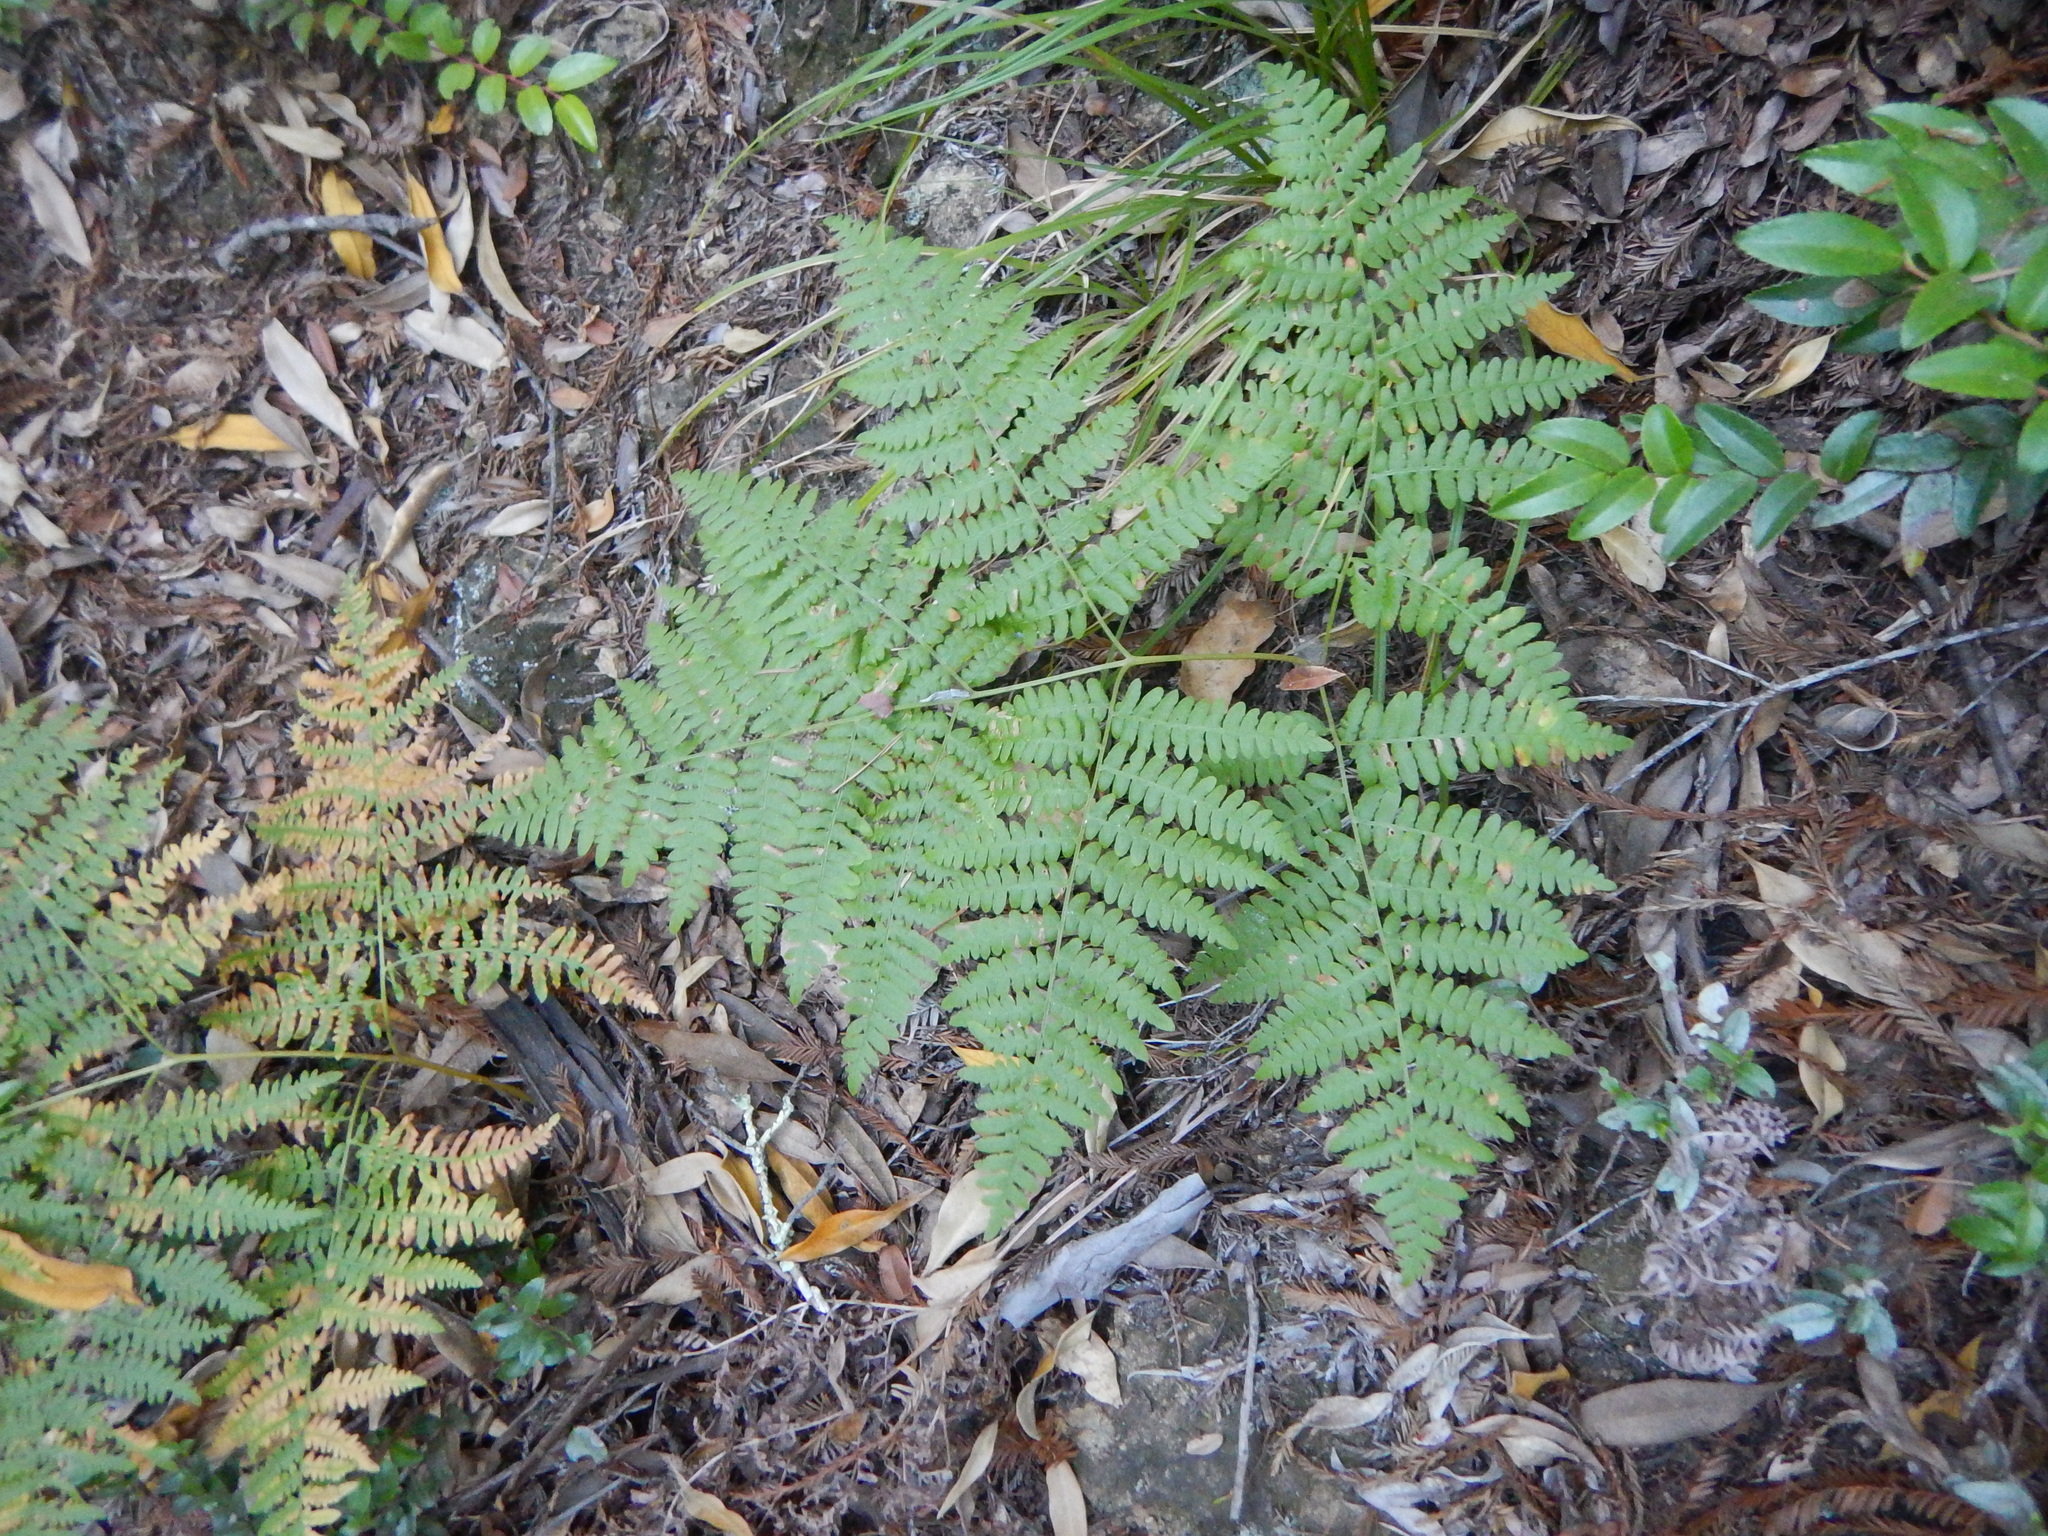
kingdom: Plantae
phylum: Tracheophyta
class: Polypodiopsida
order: Polypodiales
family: Dennstaedtiaceae
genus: Pteridium
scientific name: Pteridium aquilinum
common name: Bracken
